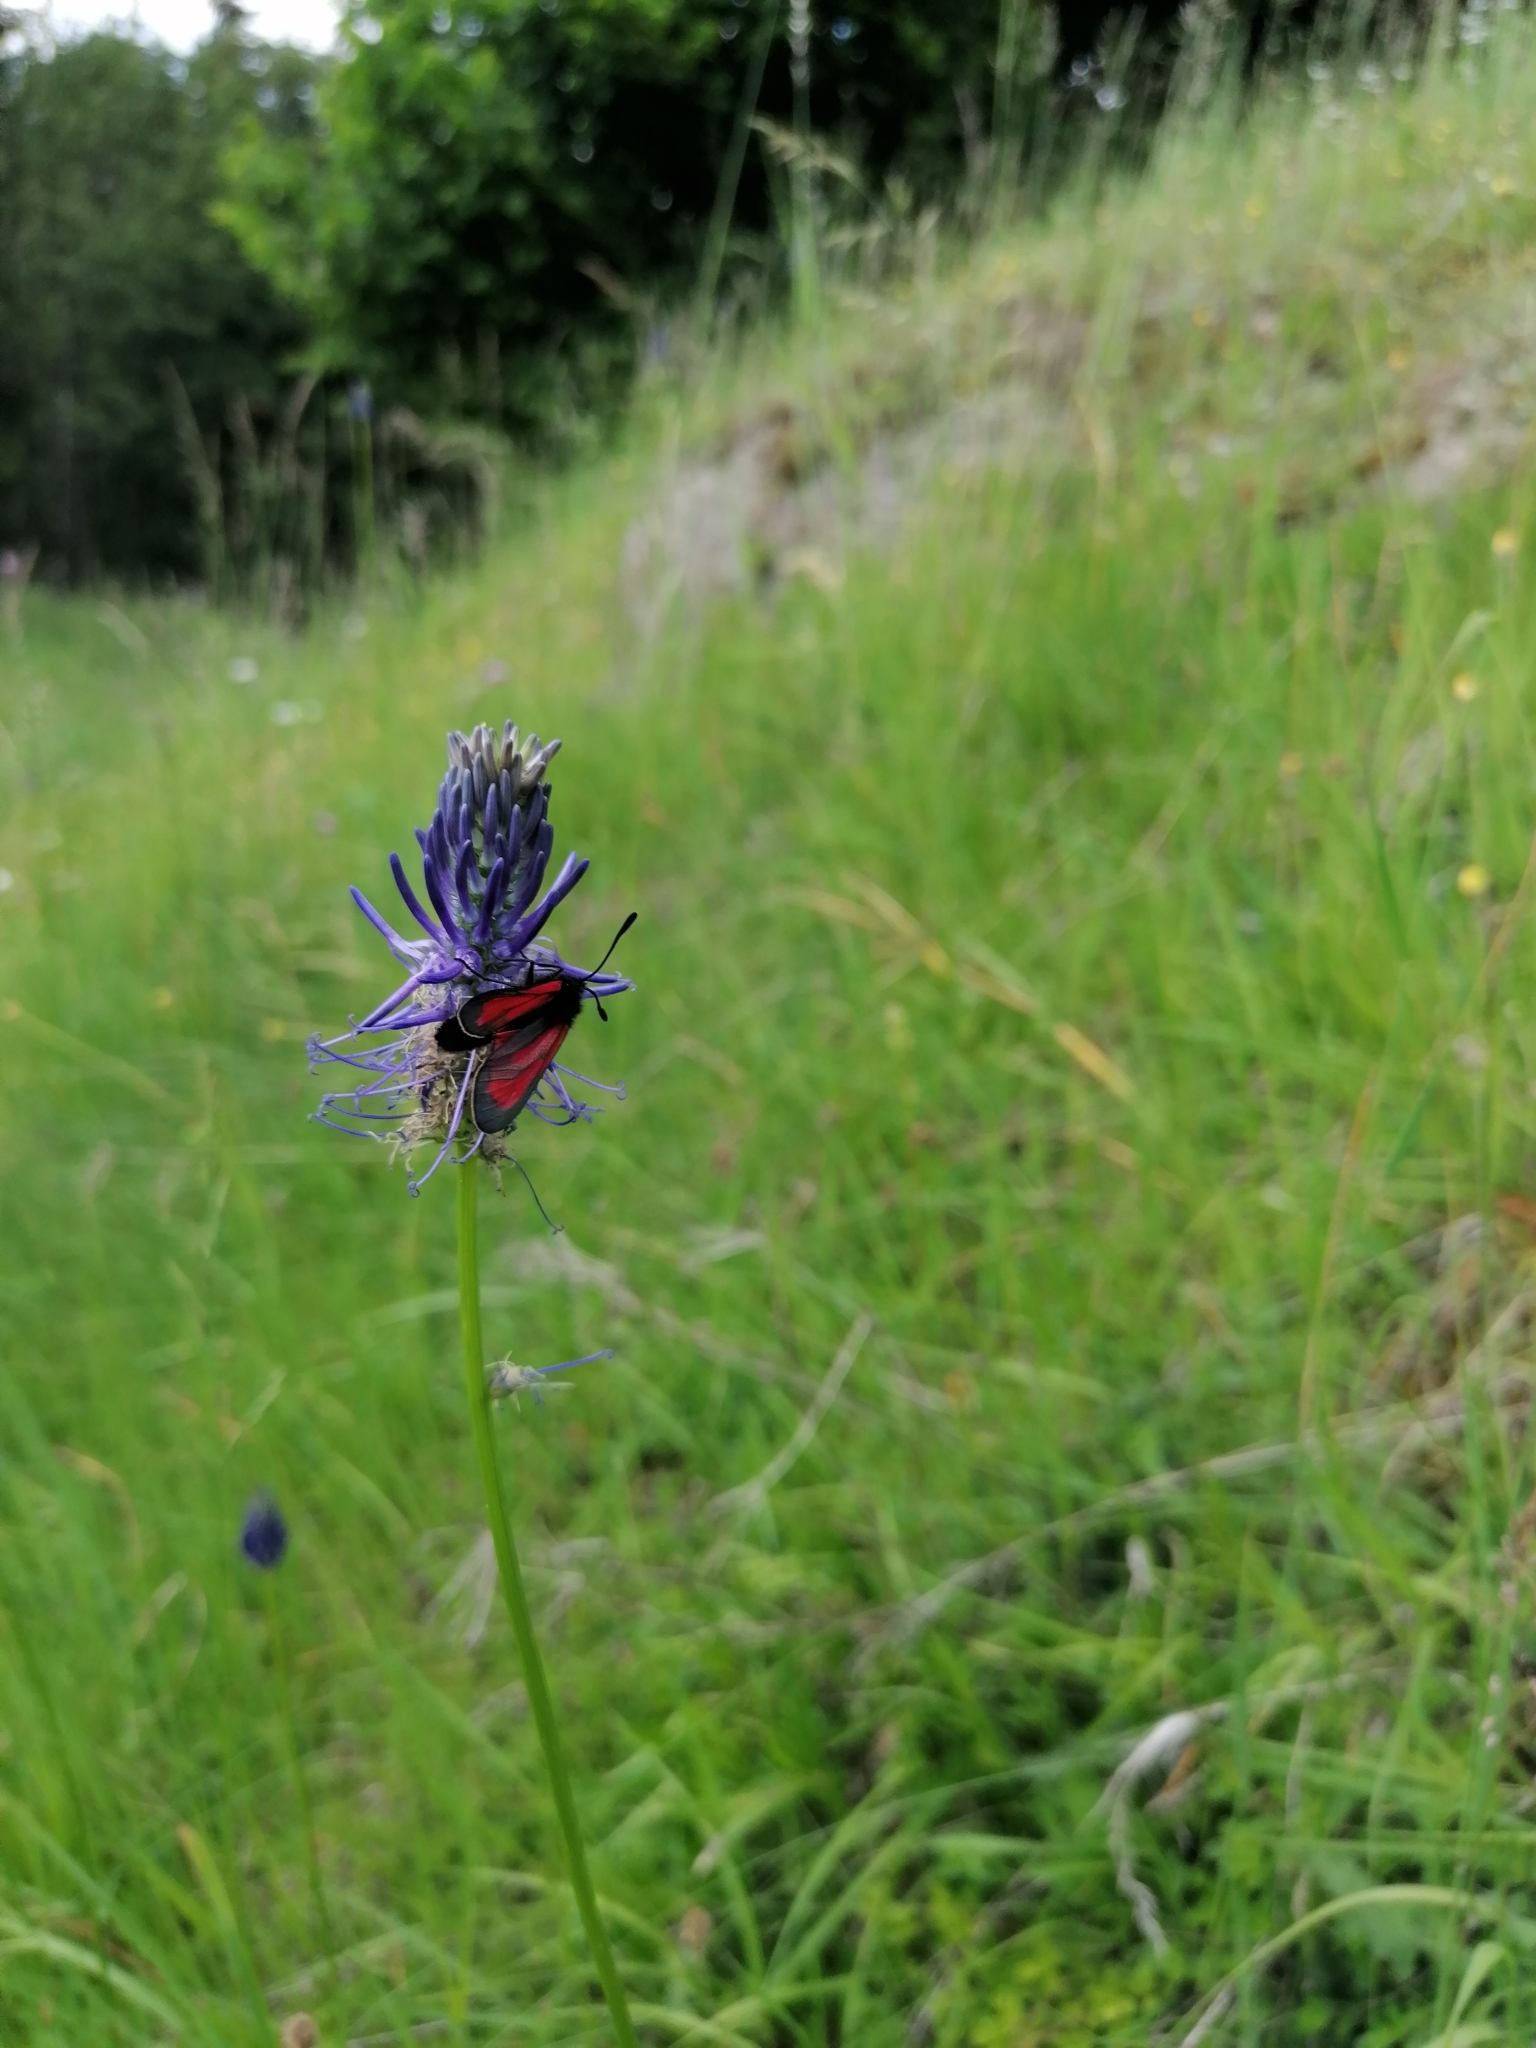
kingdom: Animalia
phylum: Arthropoda
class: Insecta
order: Lepidoptera
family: Zygaenidae
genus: Zygaena
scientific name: Zygaena purpuralis
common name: Transparent burnet
